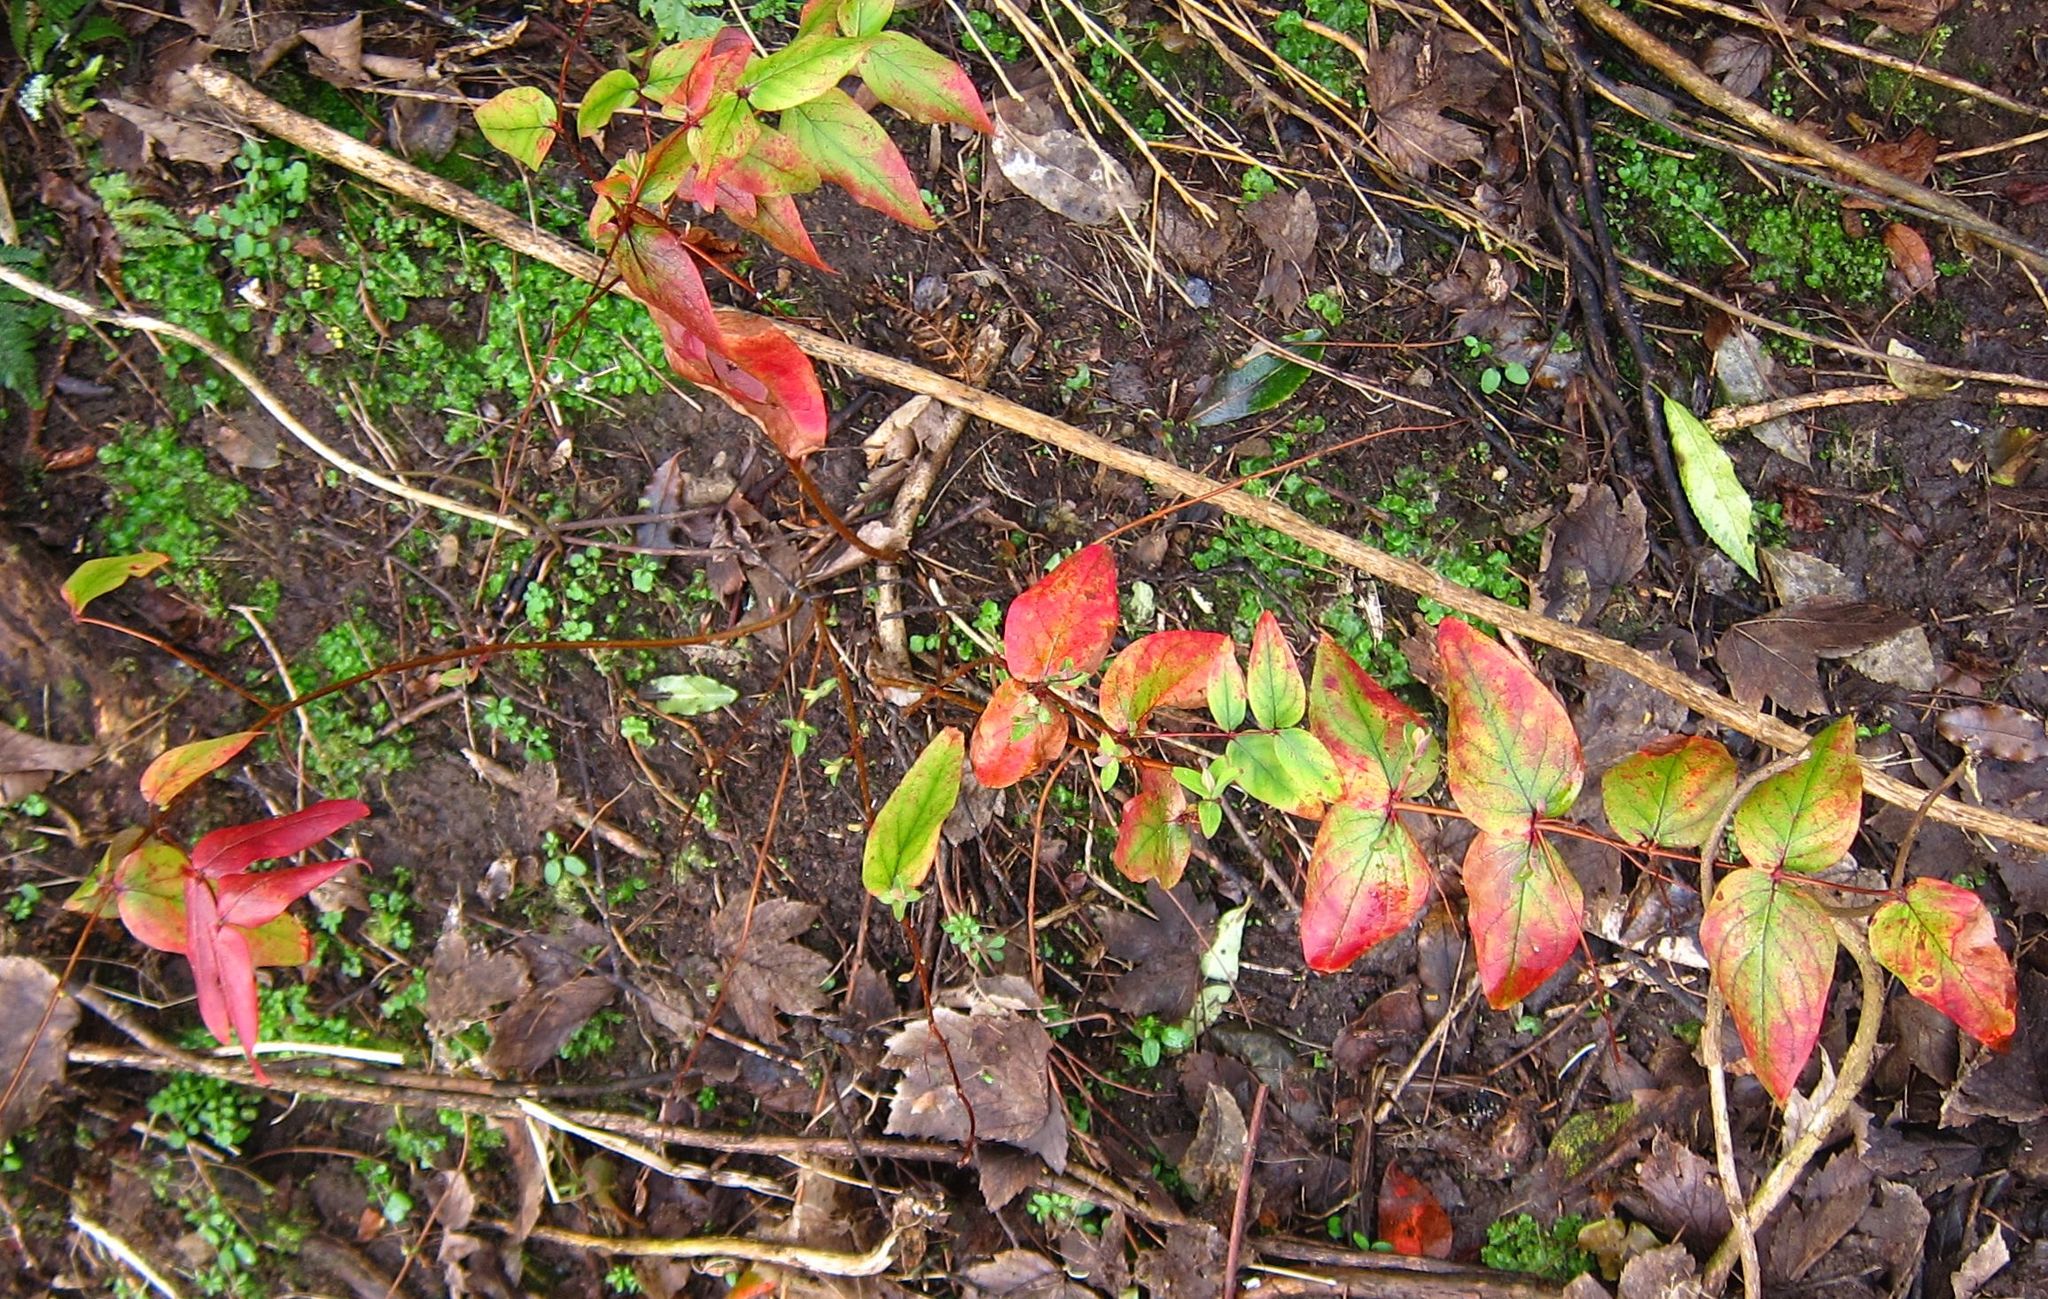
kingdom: Plantae
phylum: Tracheophyta
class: Magnoliopsida
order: Malpighiales
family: Hypericaceae
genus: Hypericum
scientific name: Hypericum androsaemum
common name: Sweet-amber
